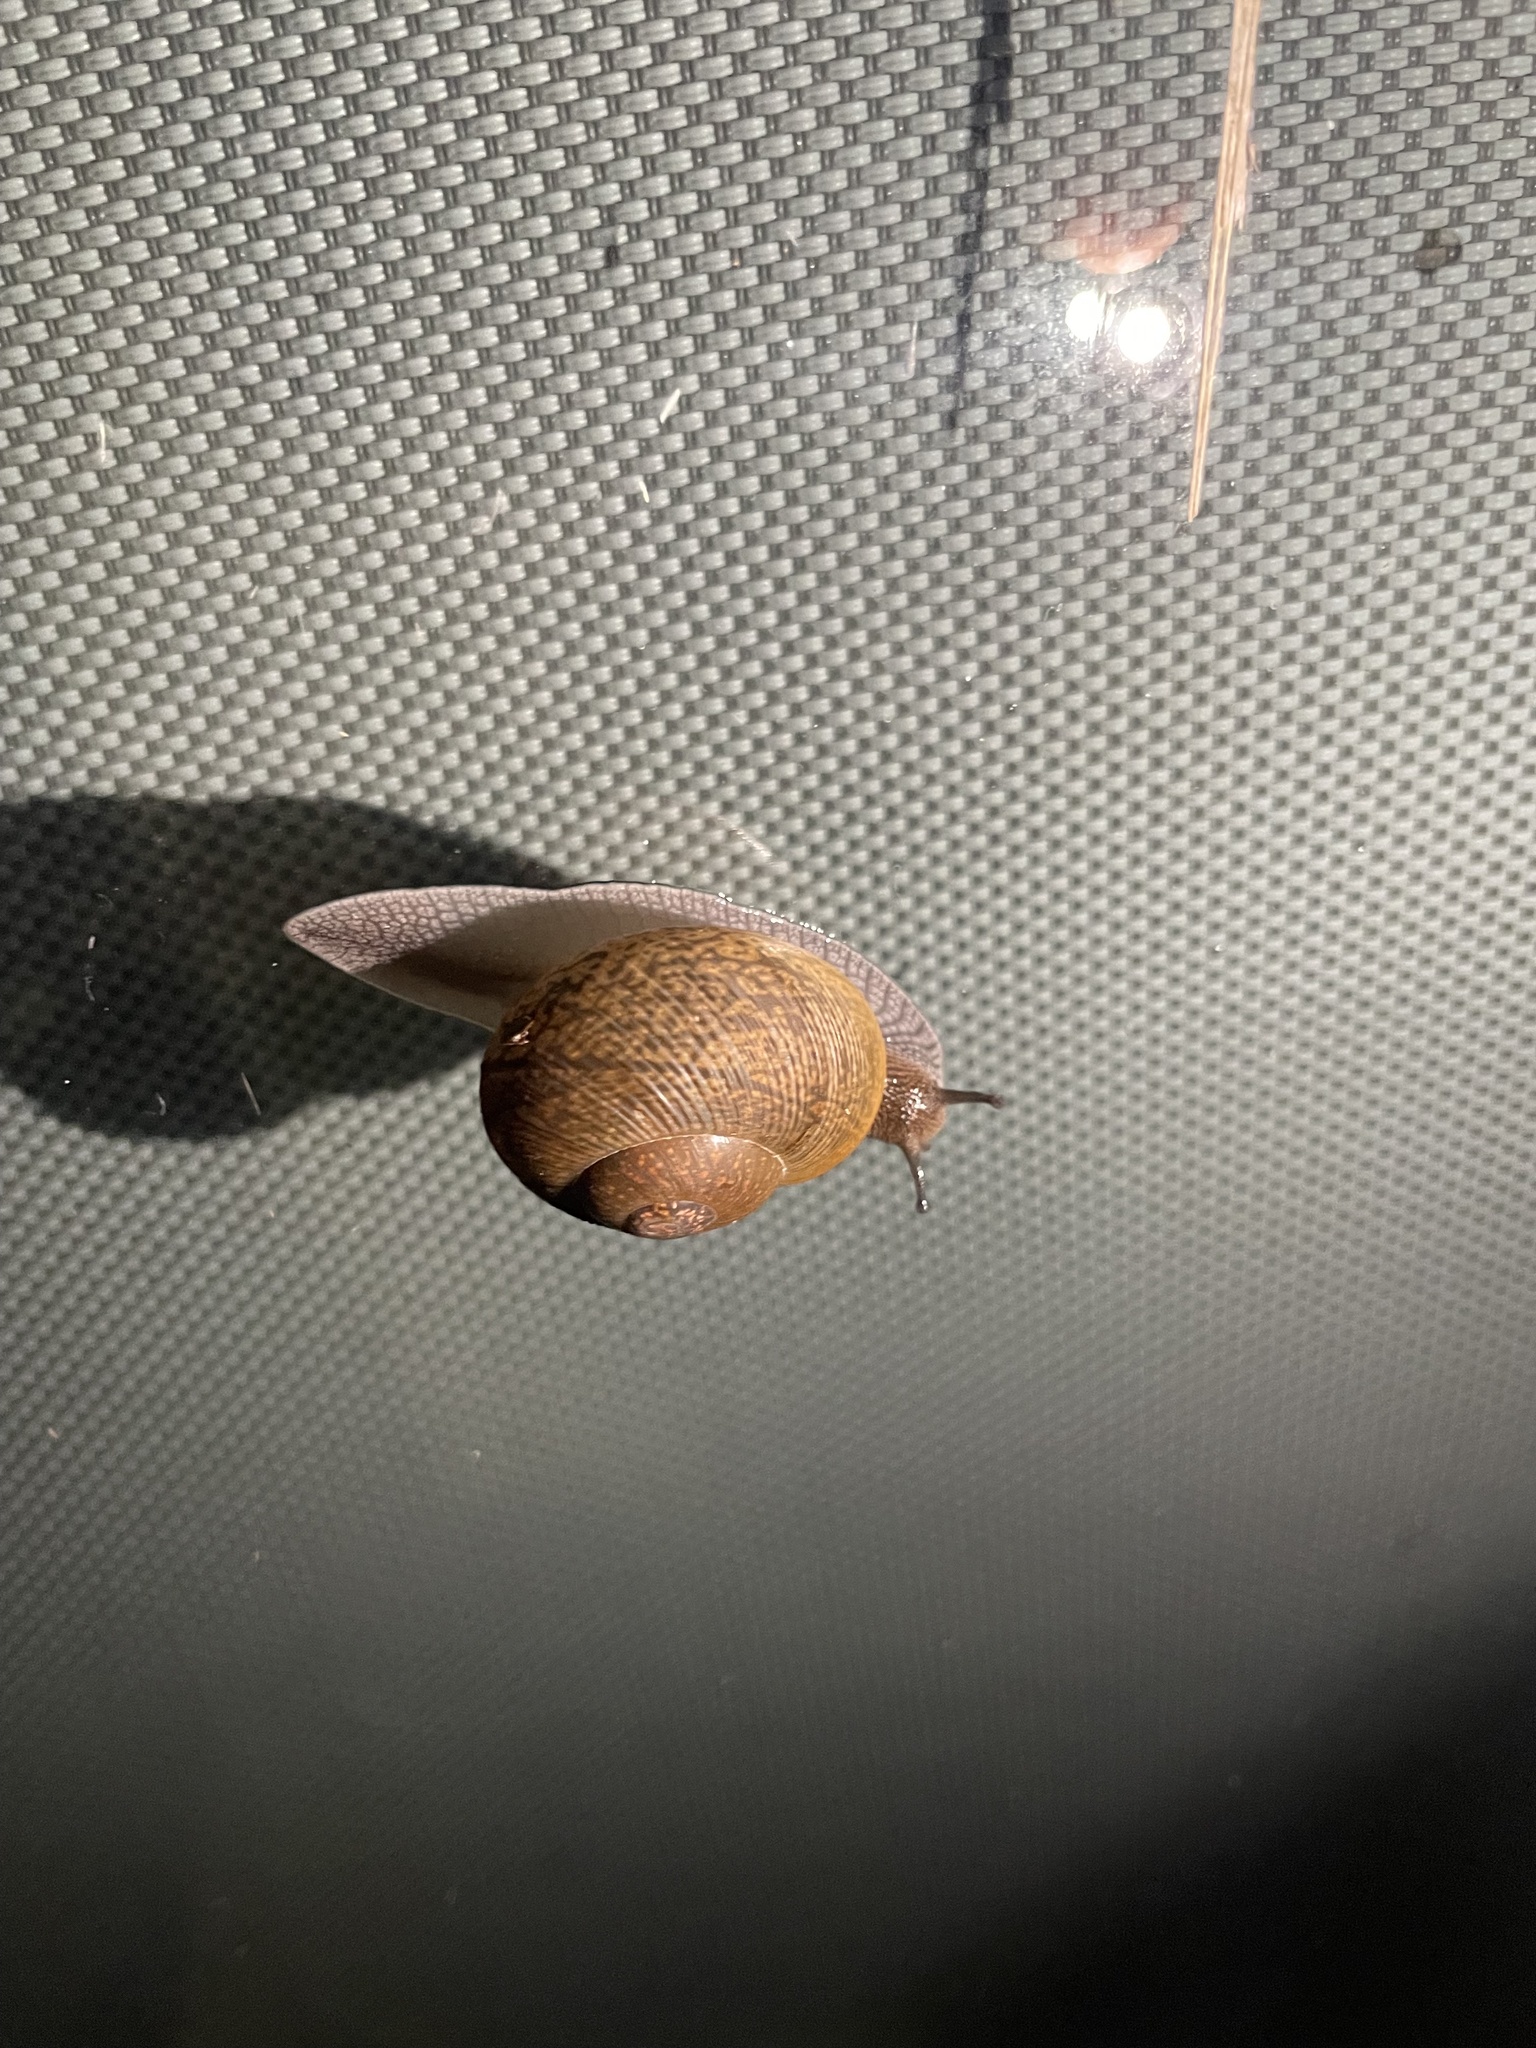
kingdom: Animalia
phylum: Mollusca
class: Gastropoda
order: Stylommatophora
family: Zachrysiidae
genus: Zachrysia
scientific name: Zachrysia provisoria
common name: Garden zachrysia
